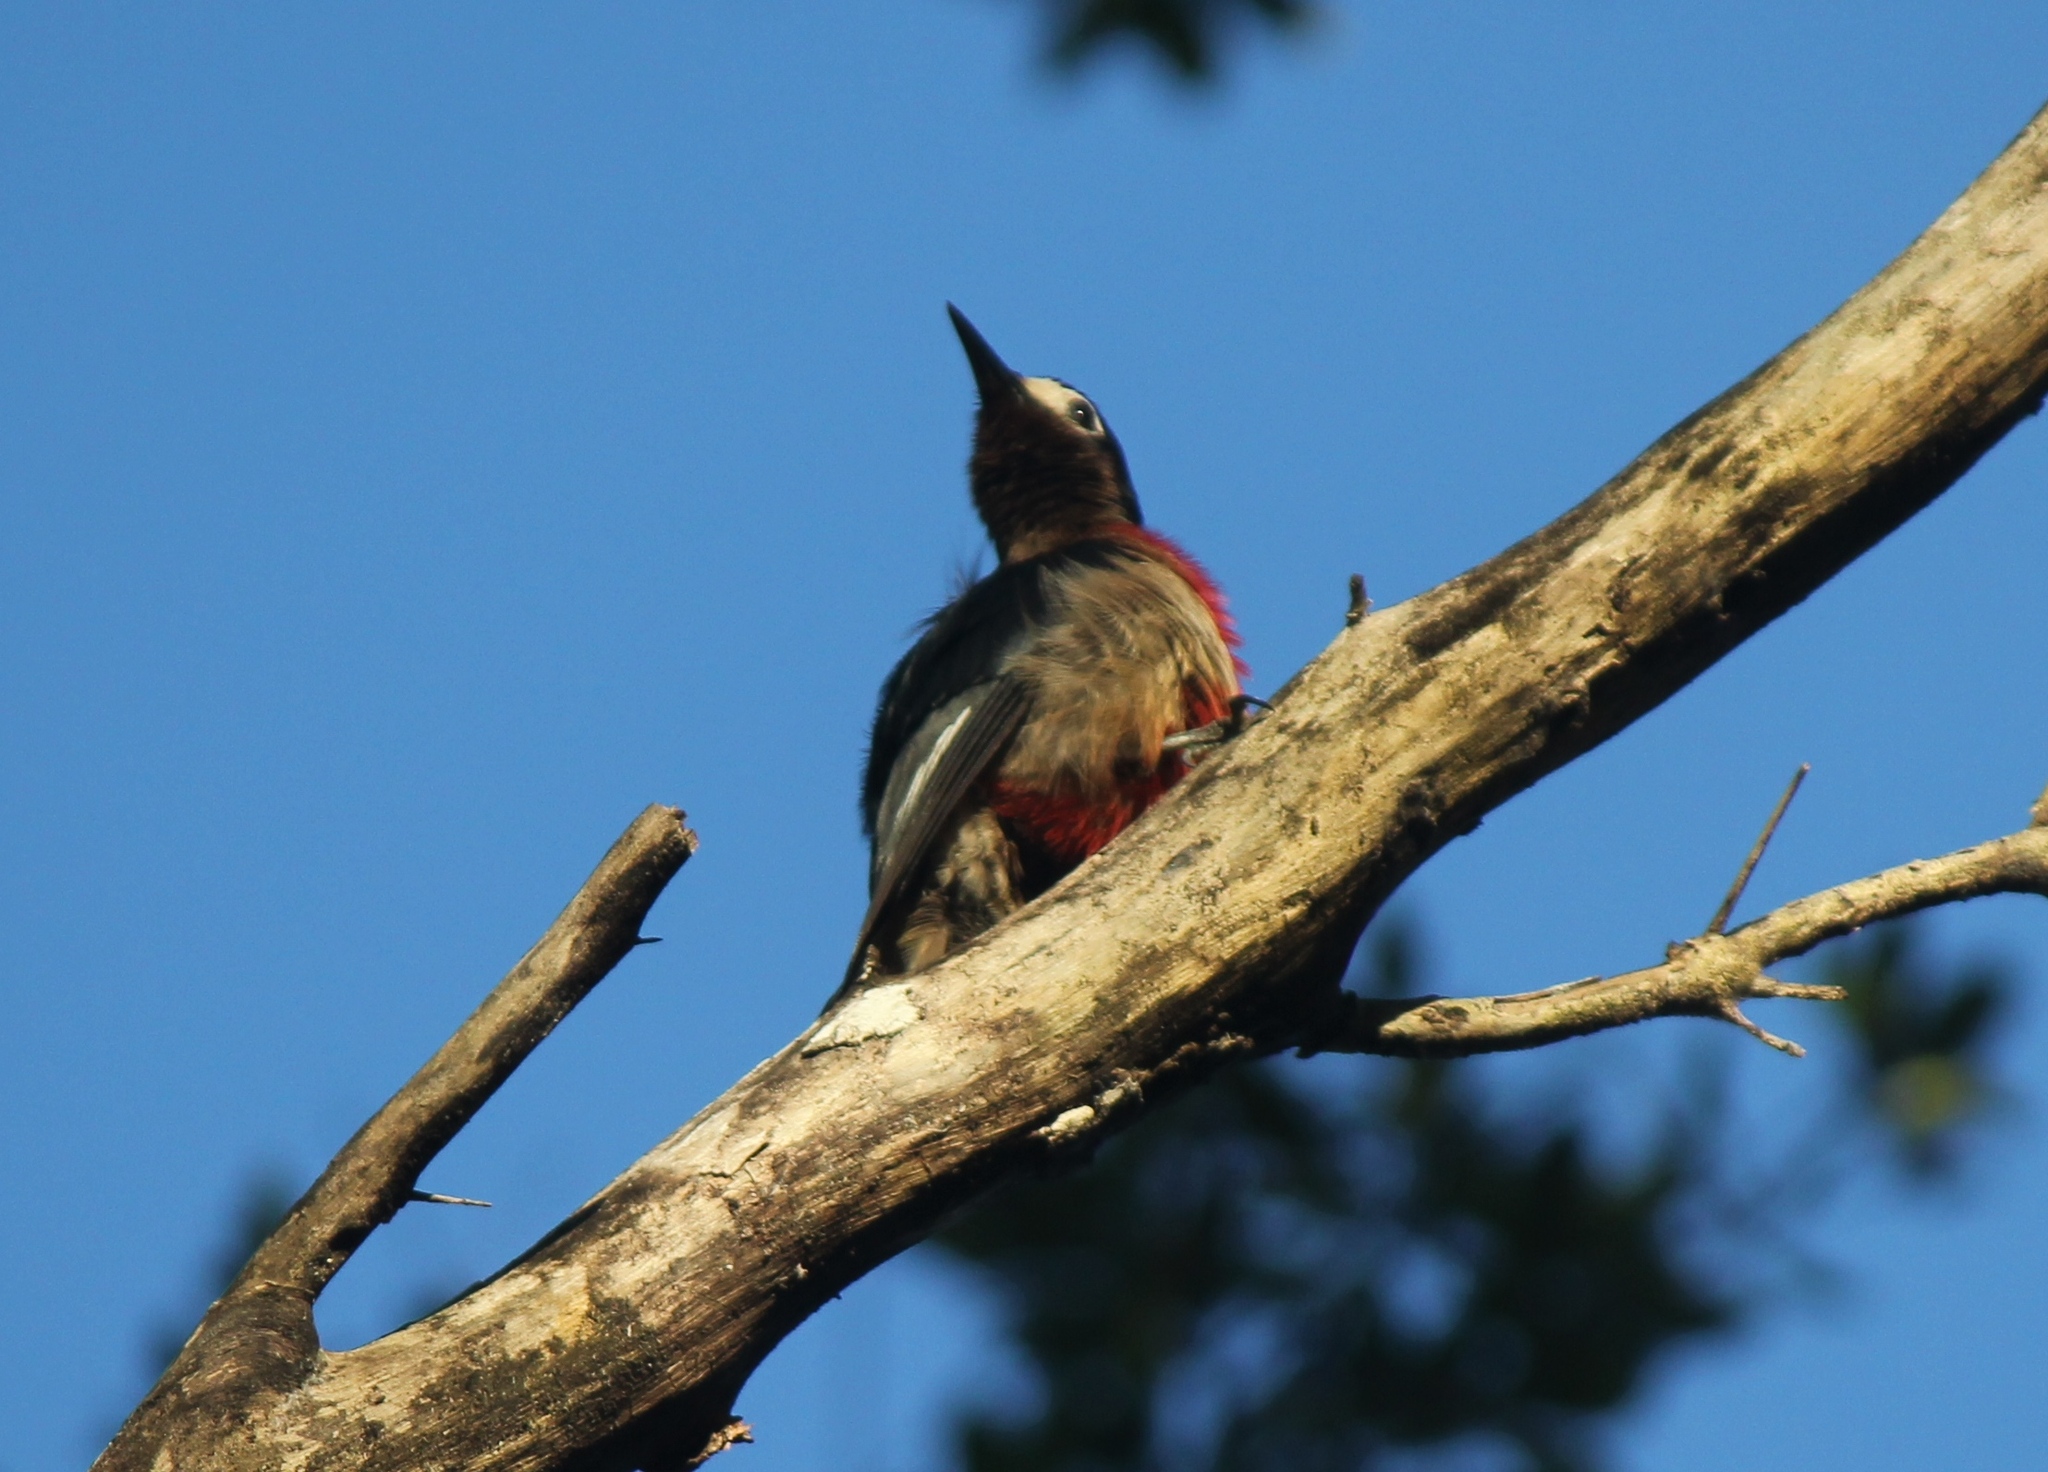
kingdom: Animalia
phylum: Chordata
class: Aves
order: Piciformes
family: Picidae
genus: Melanerpes
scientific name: Melanerpes portoricensis
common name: Puerto rican woodpecker
